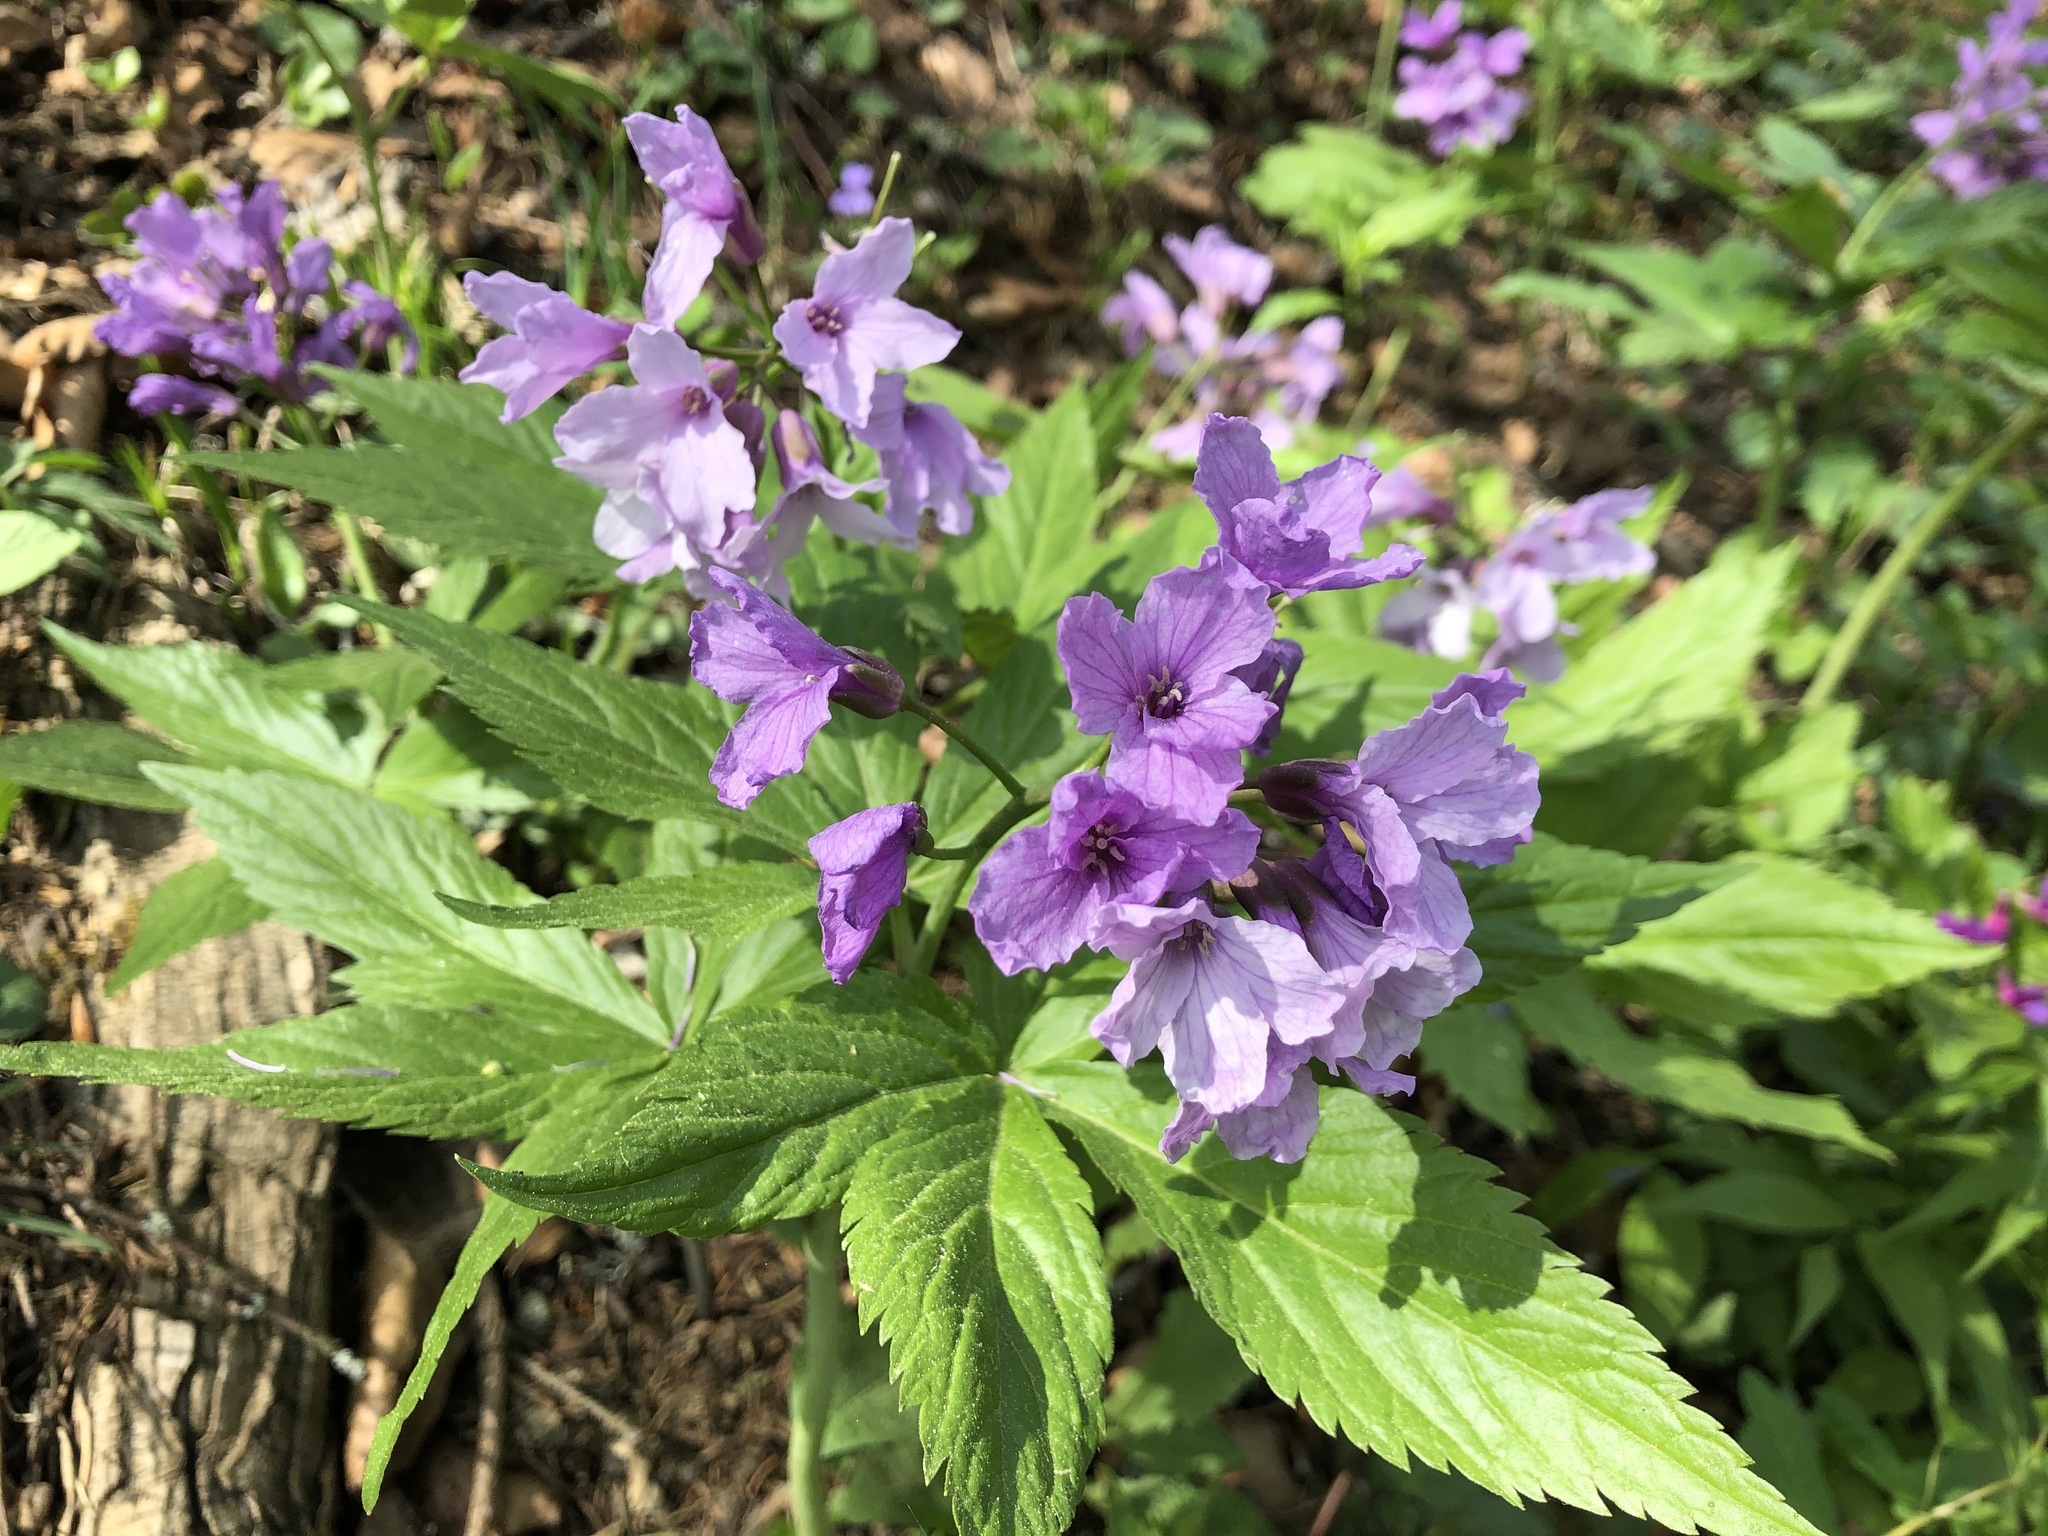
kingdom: Plantae
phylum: Tracheophyta
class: Magnoliopsida
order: Brassicales
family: Brassicaceae
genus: Cardamine
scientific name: Cardamine pentaphyllos
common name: Five-leaflet bitter-cress
